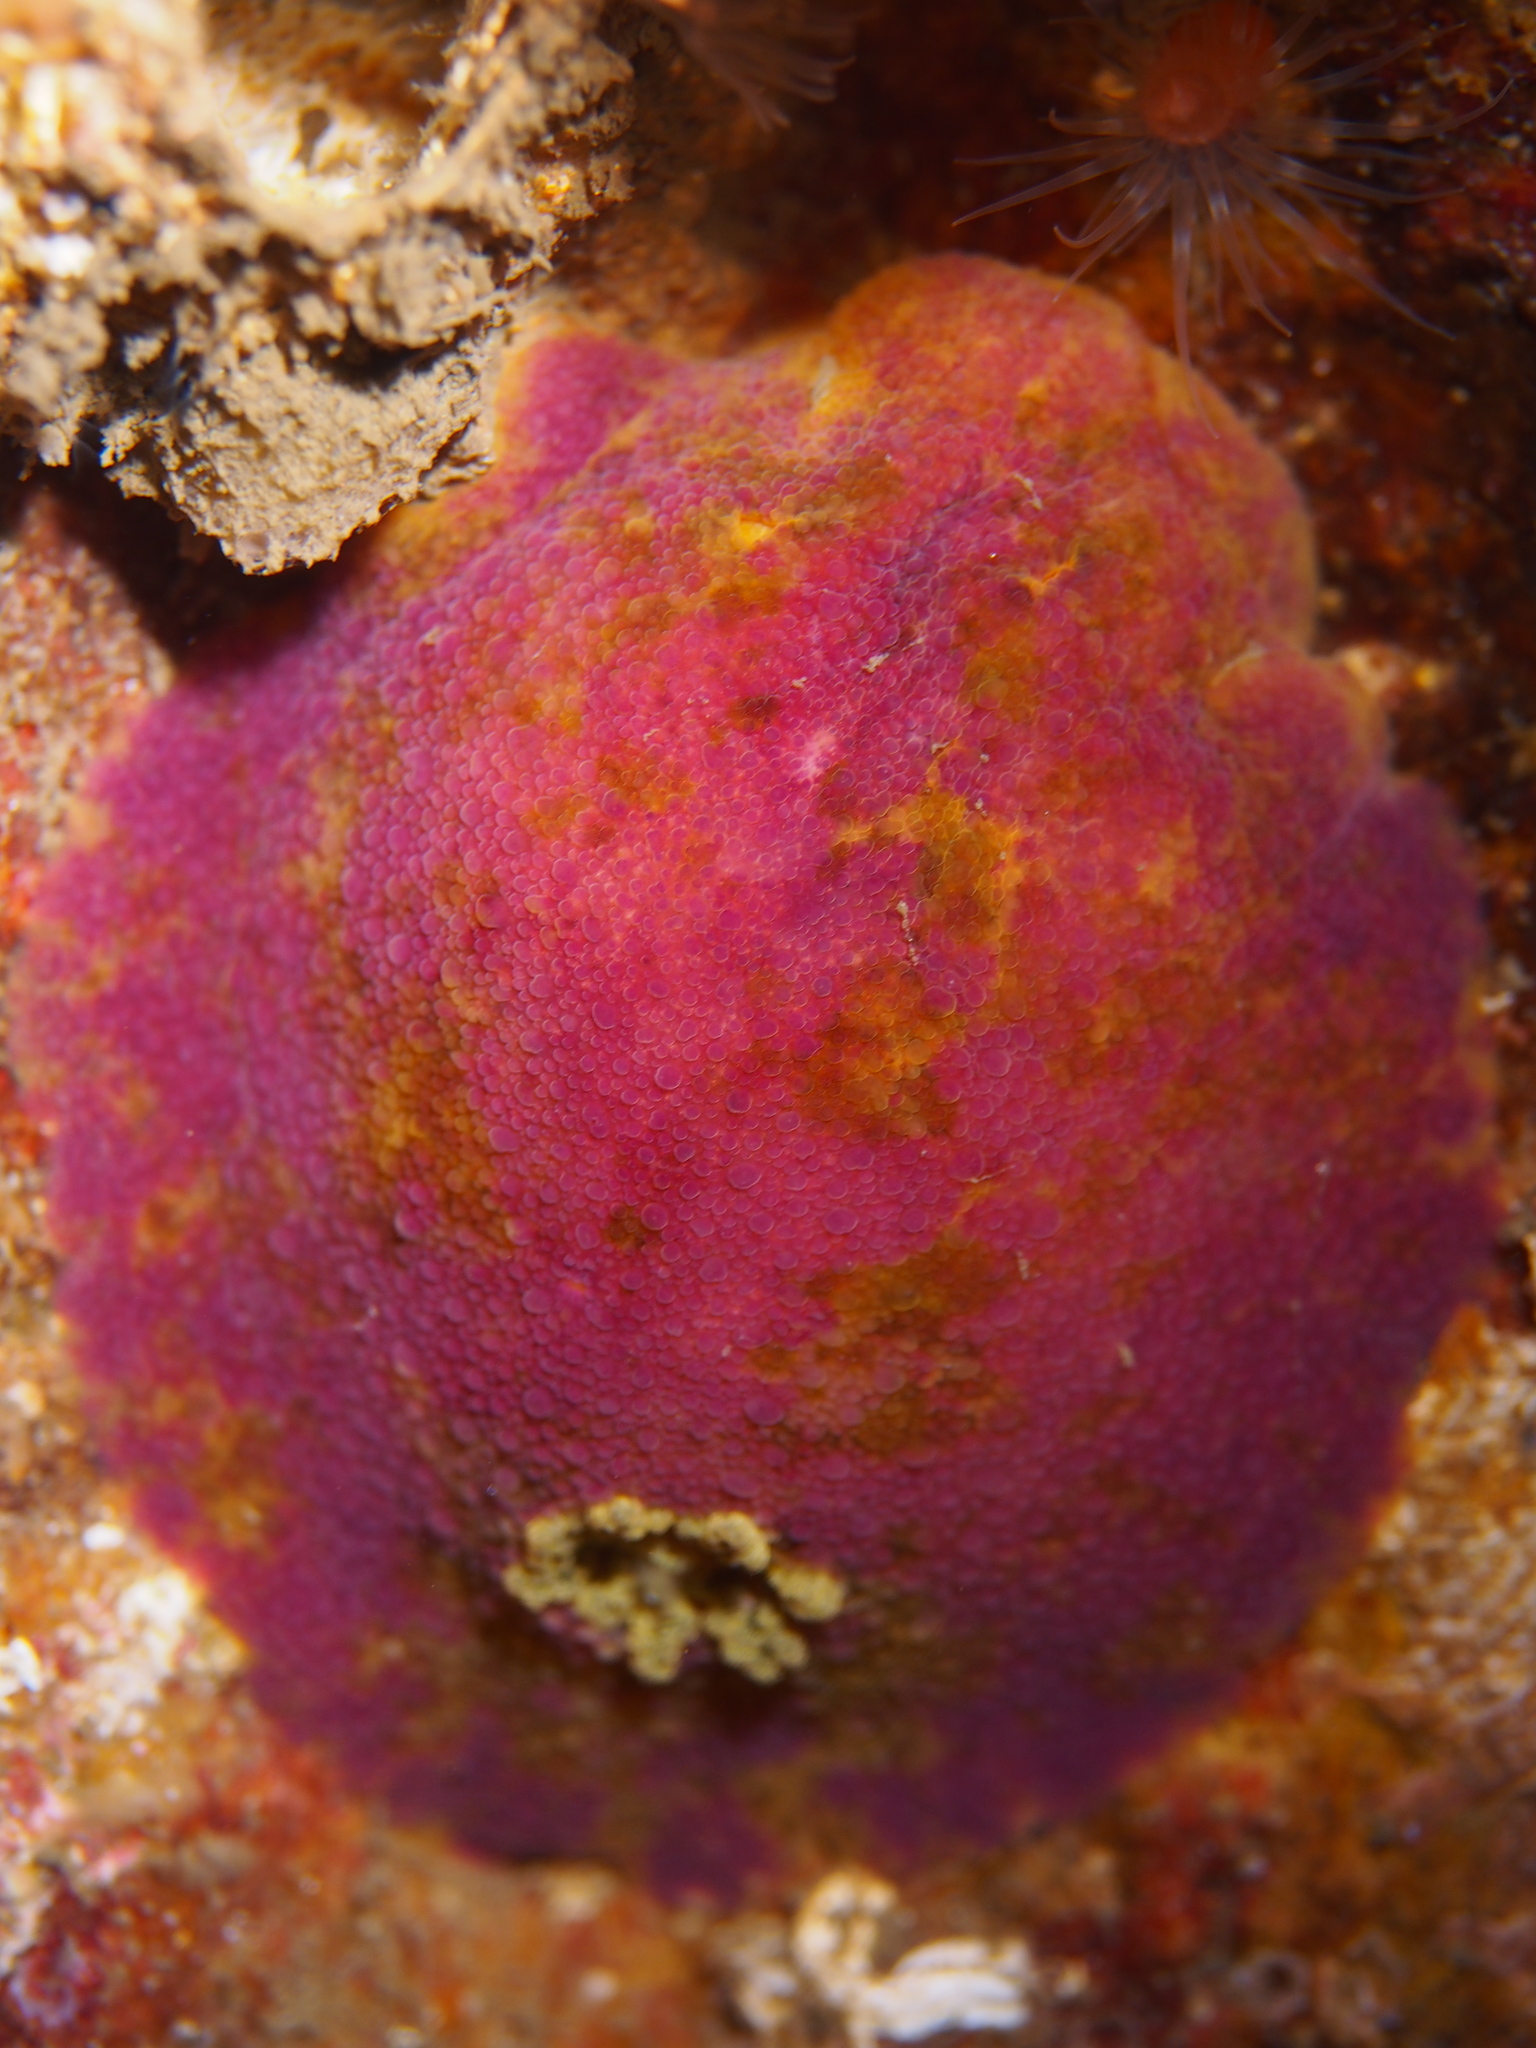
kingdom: Animalia
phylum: Mollusca
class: Gastropoda
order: Nudibranchia
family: Dorididae
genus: Doris
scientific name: Doris pseudoargus
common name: Sea lemon
